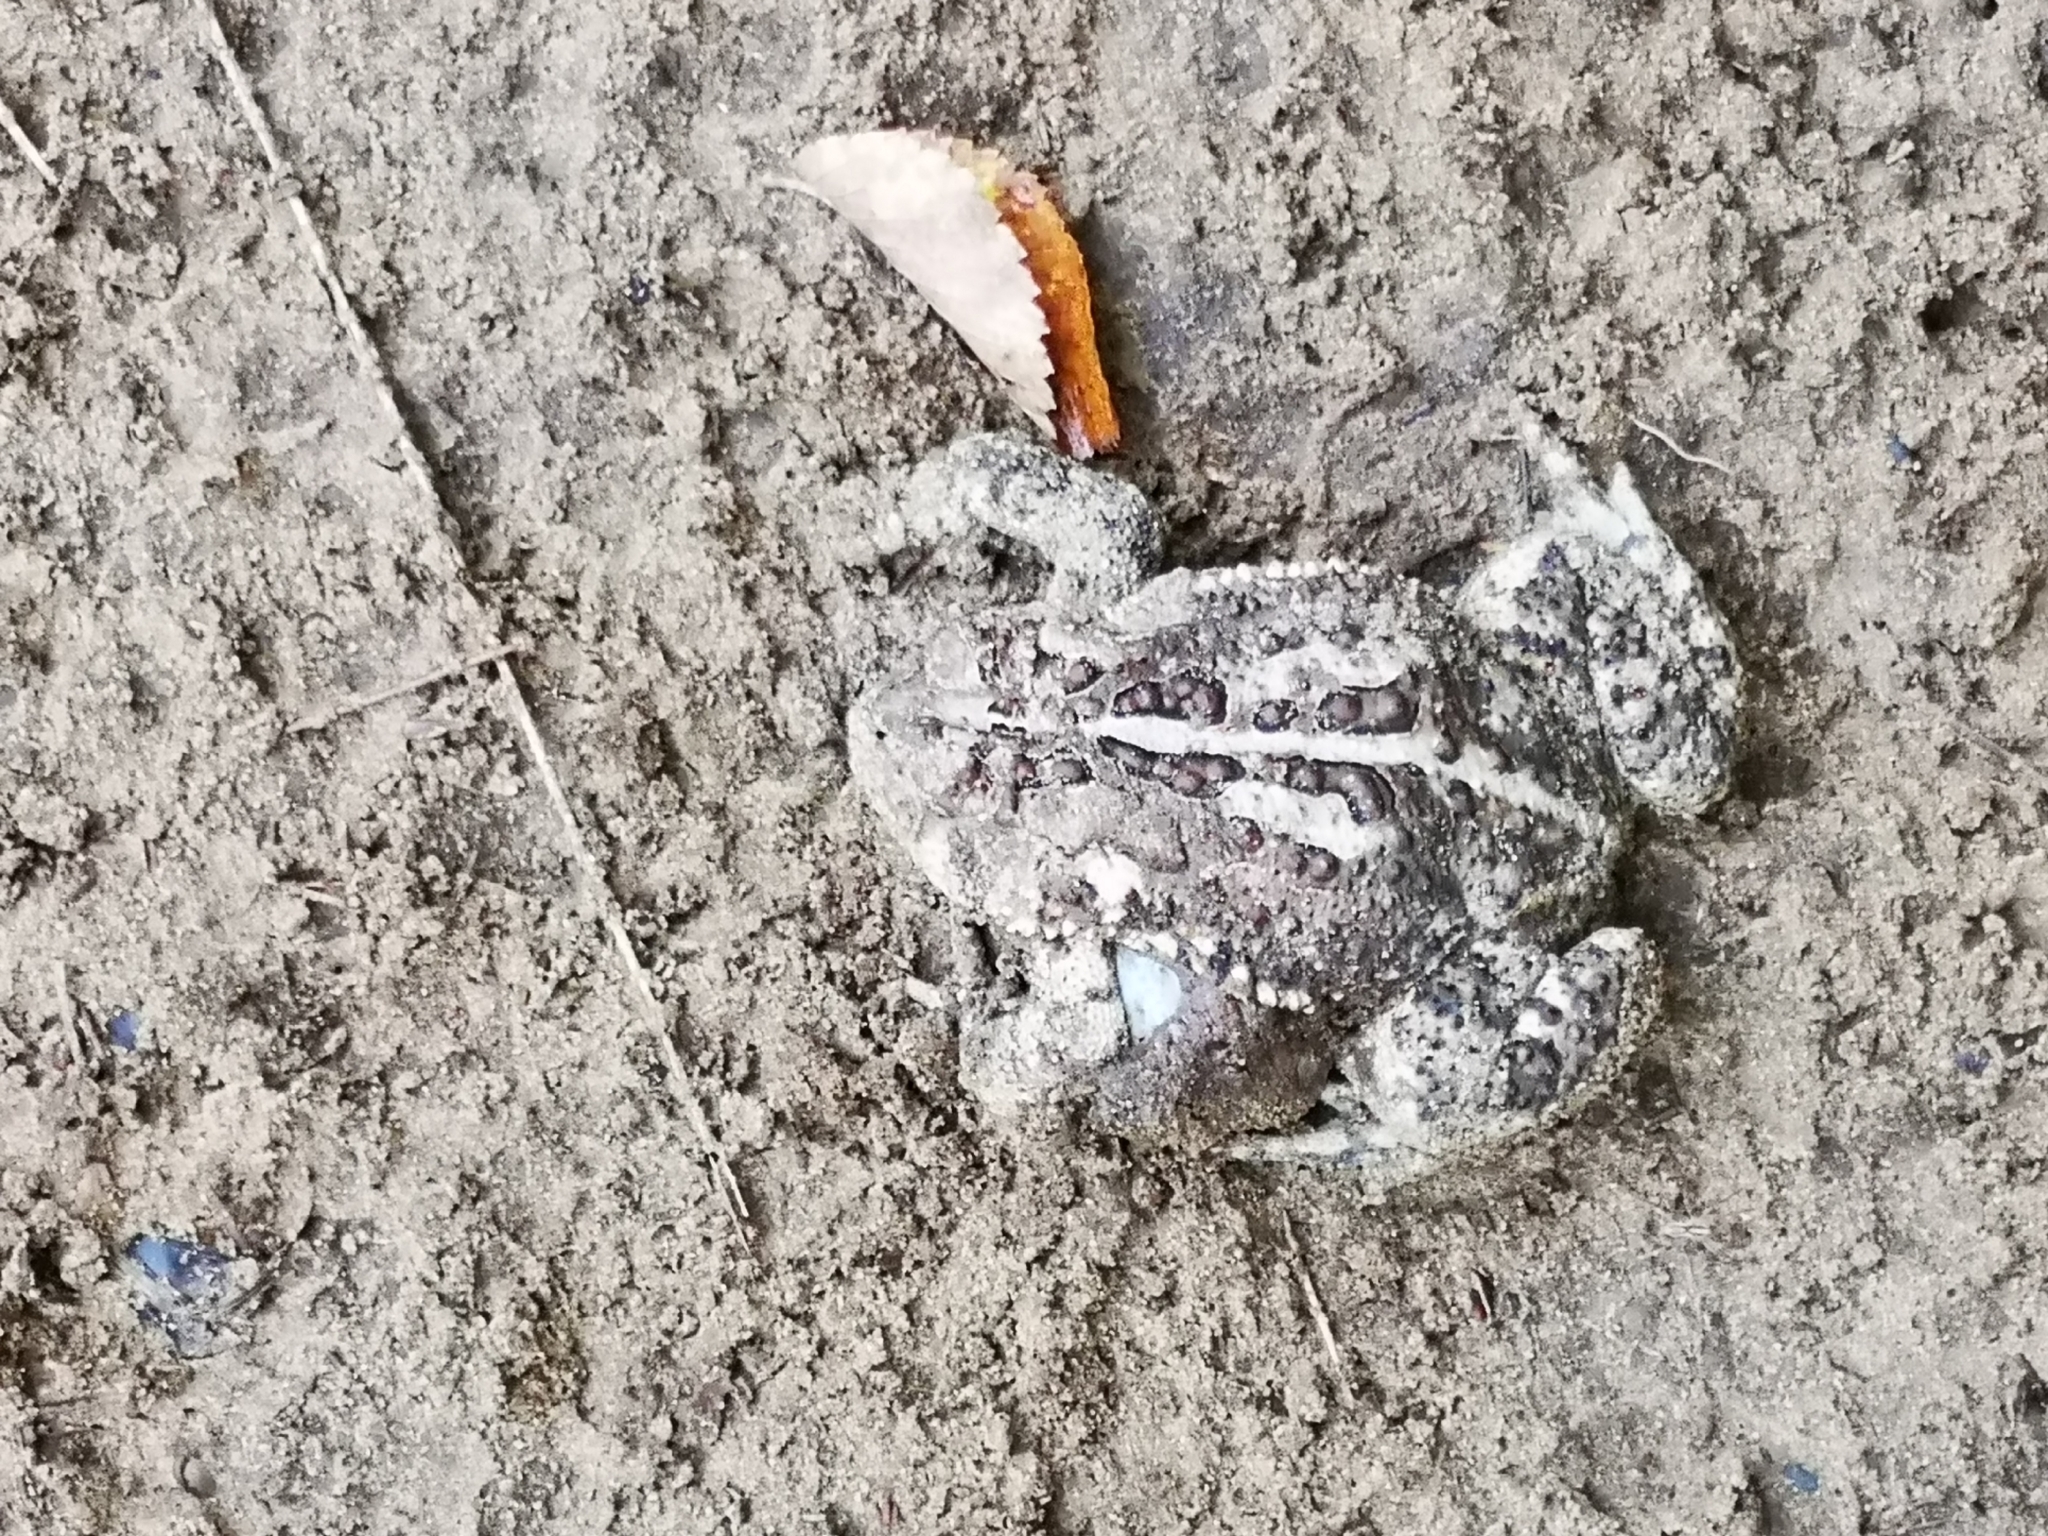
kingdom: Animalia
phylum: Chordata
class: Amphibia
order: Anura
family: Bufonidae
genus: Anaxyrus
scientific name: Anaxyrus americanus
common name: American toad
